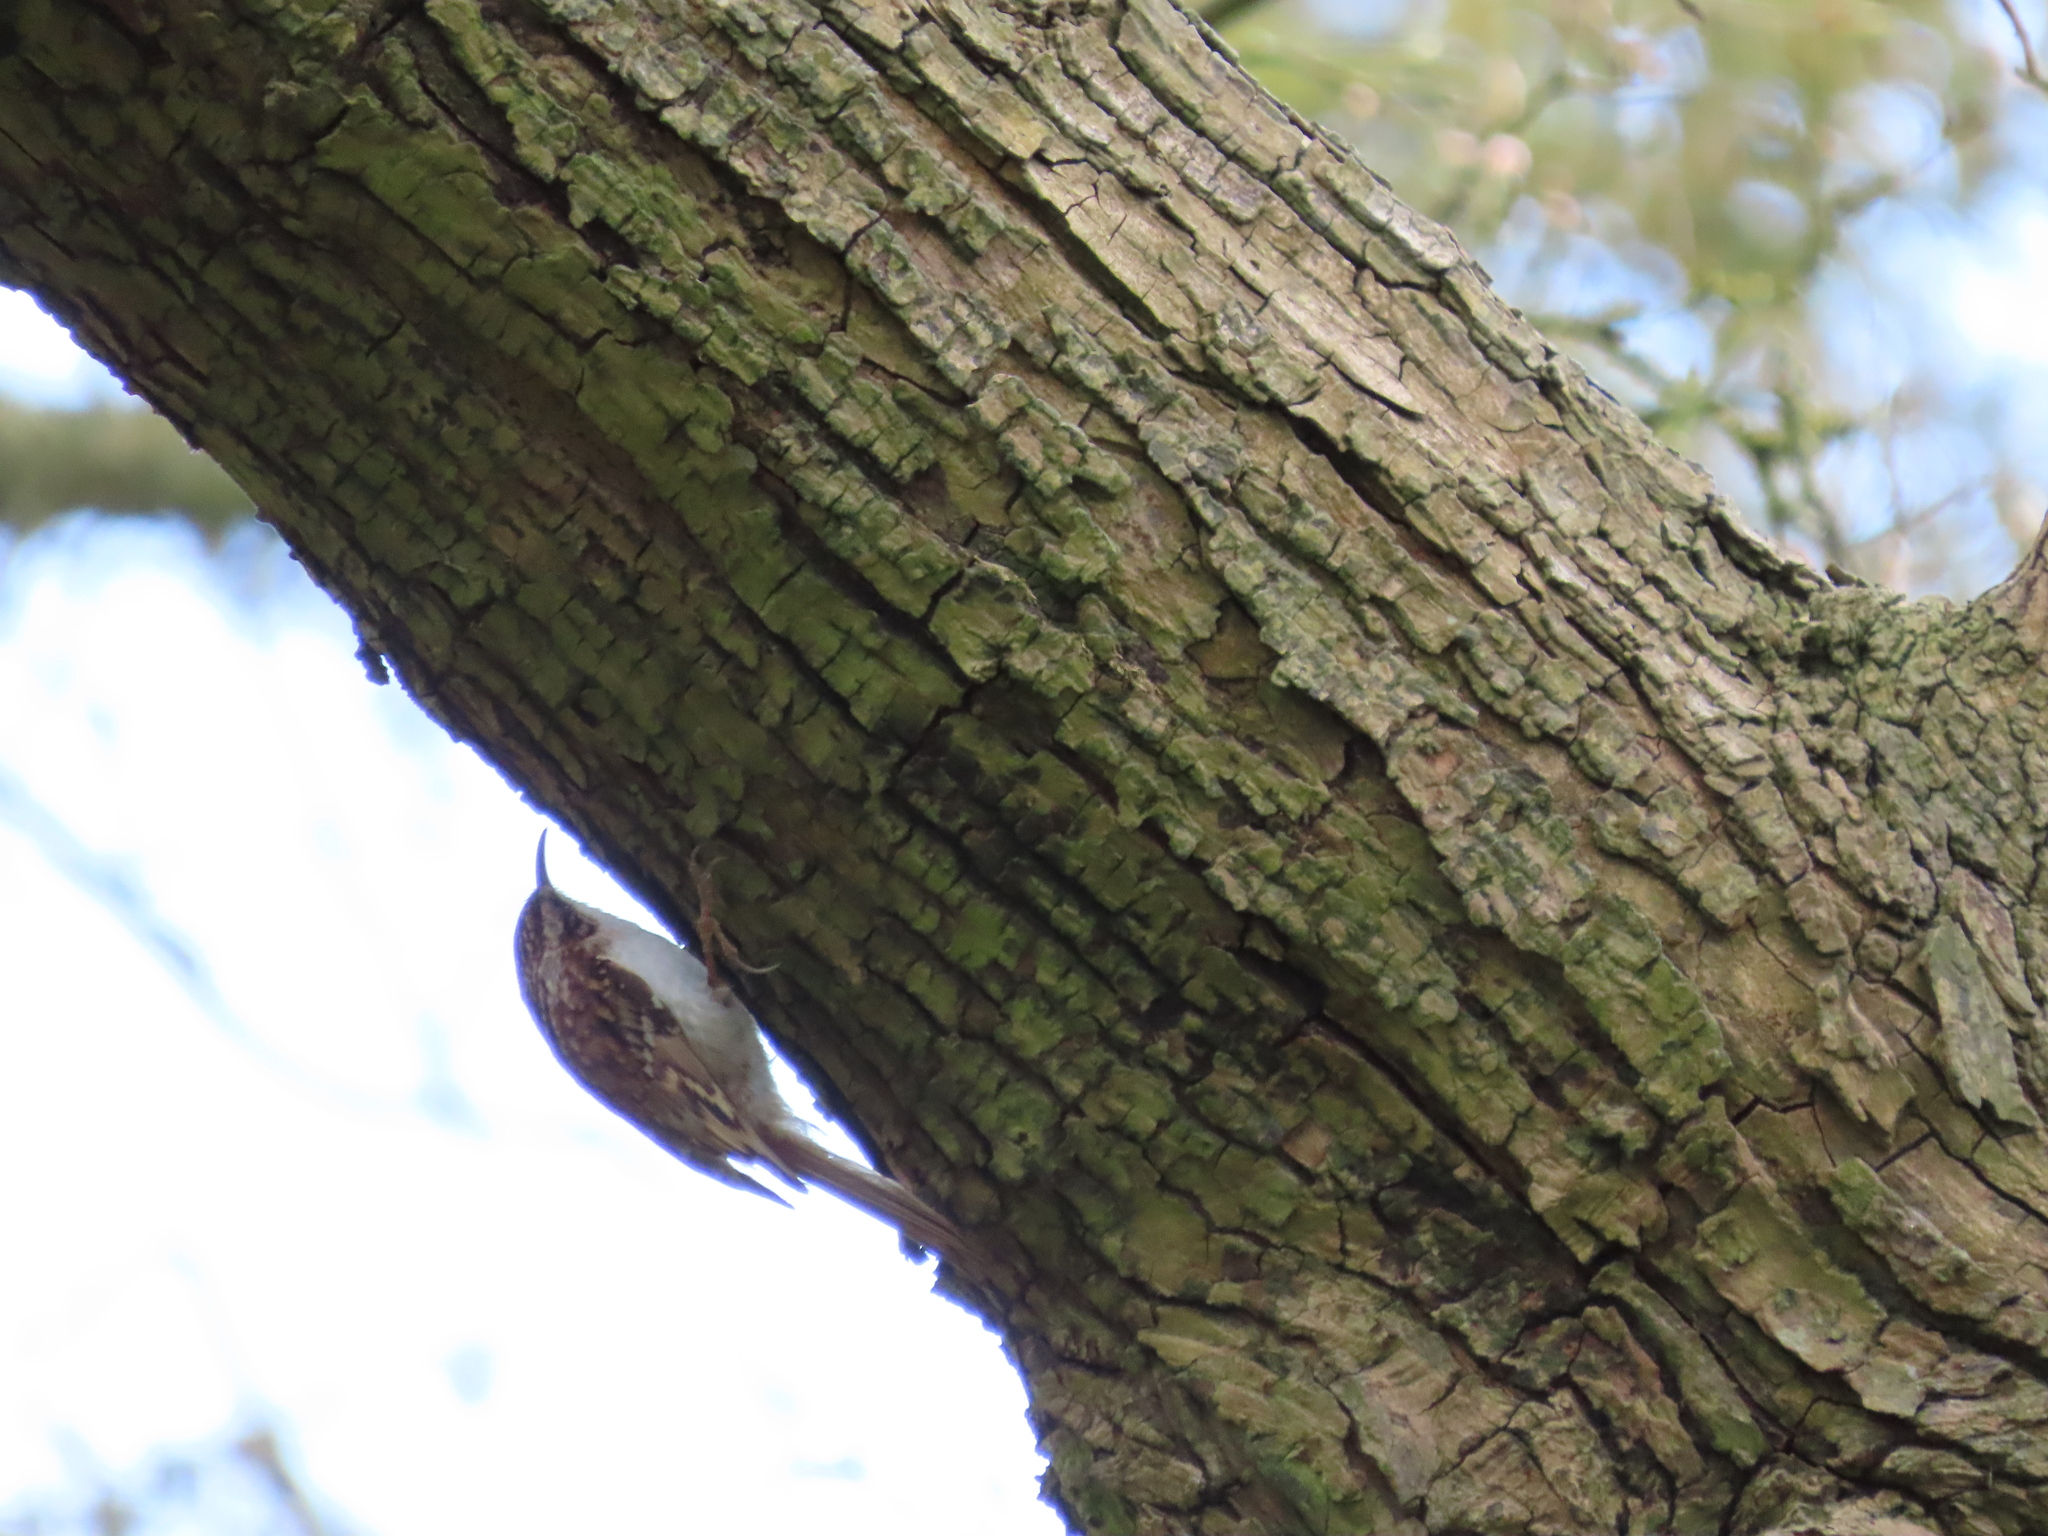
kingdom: Animalia
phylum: Chordata
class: Aves
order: Passeriformes
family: Certhiidae
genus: Certhia
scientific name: Certhia familiaris
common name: Eurasian treecreeper
